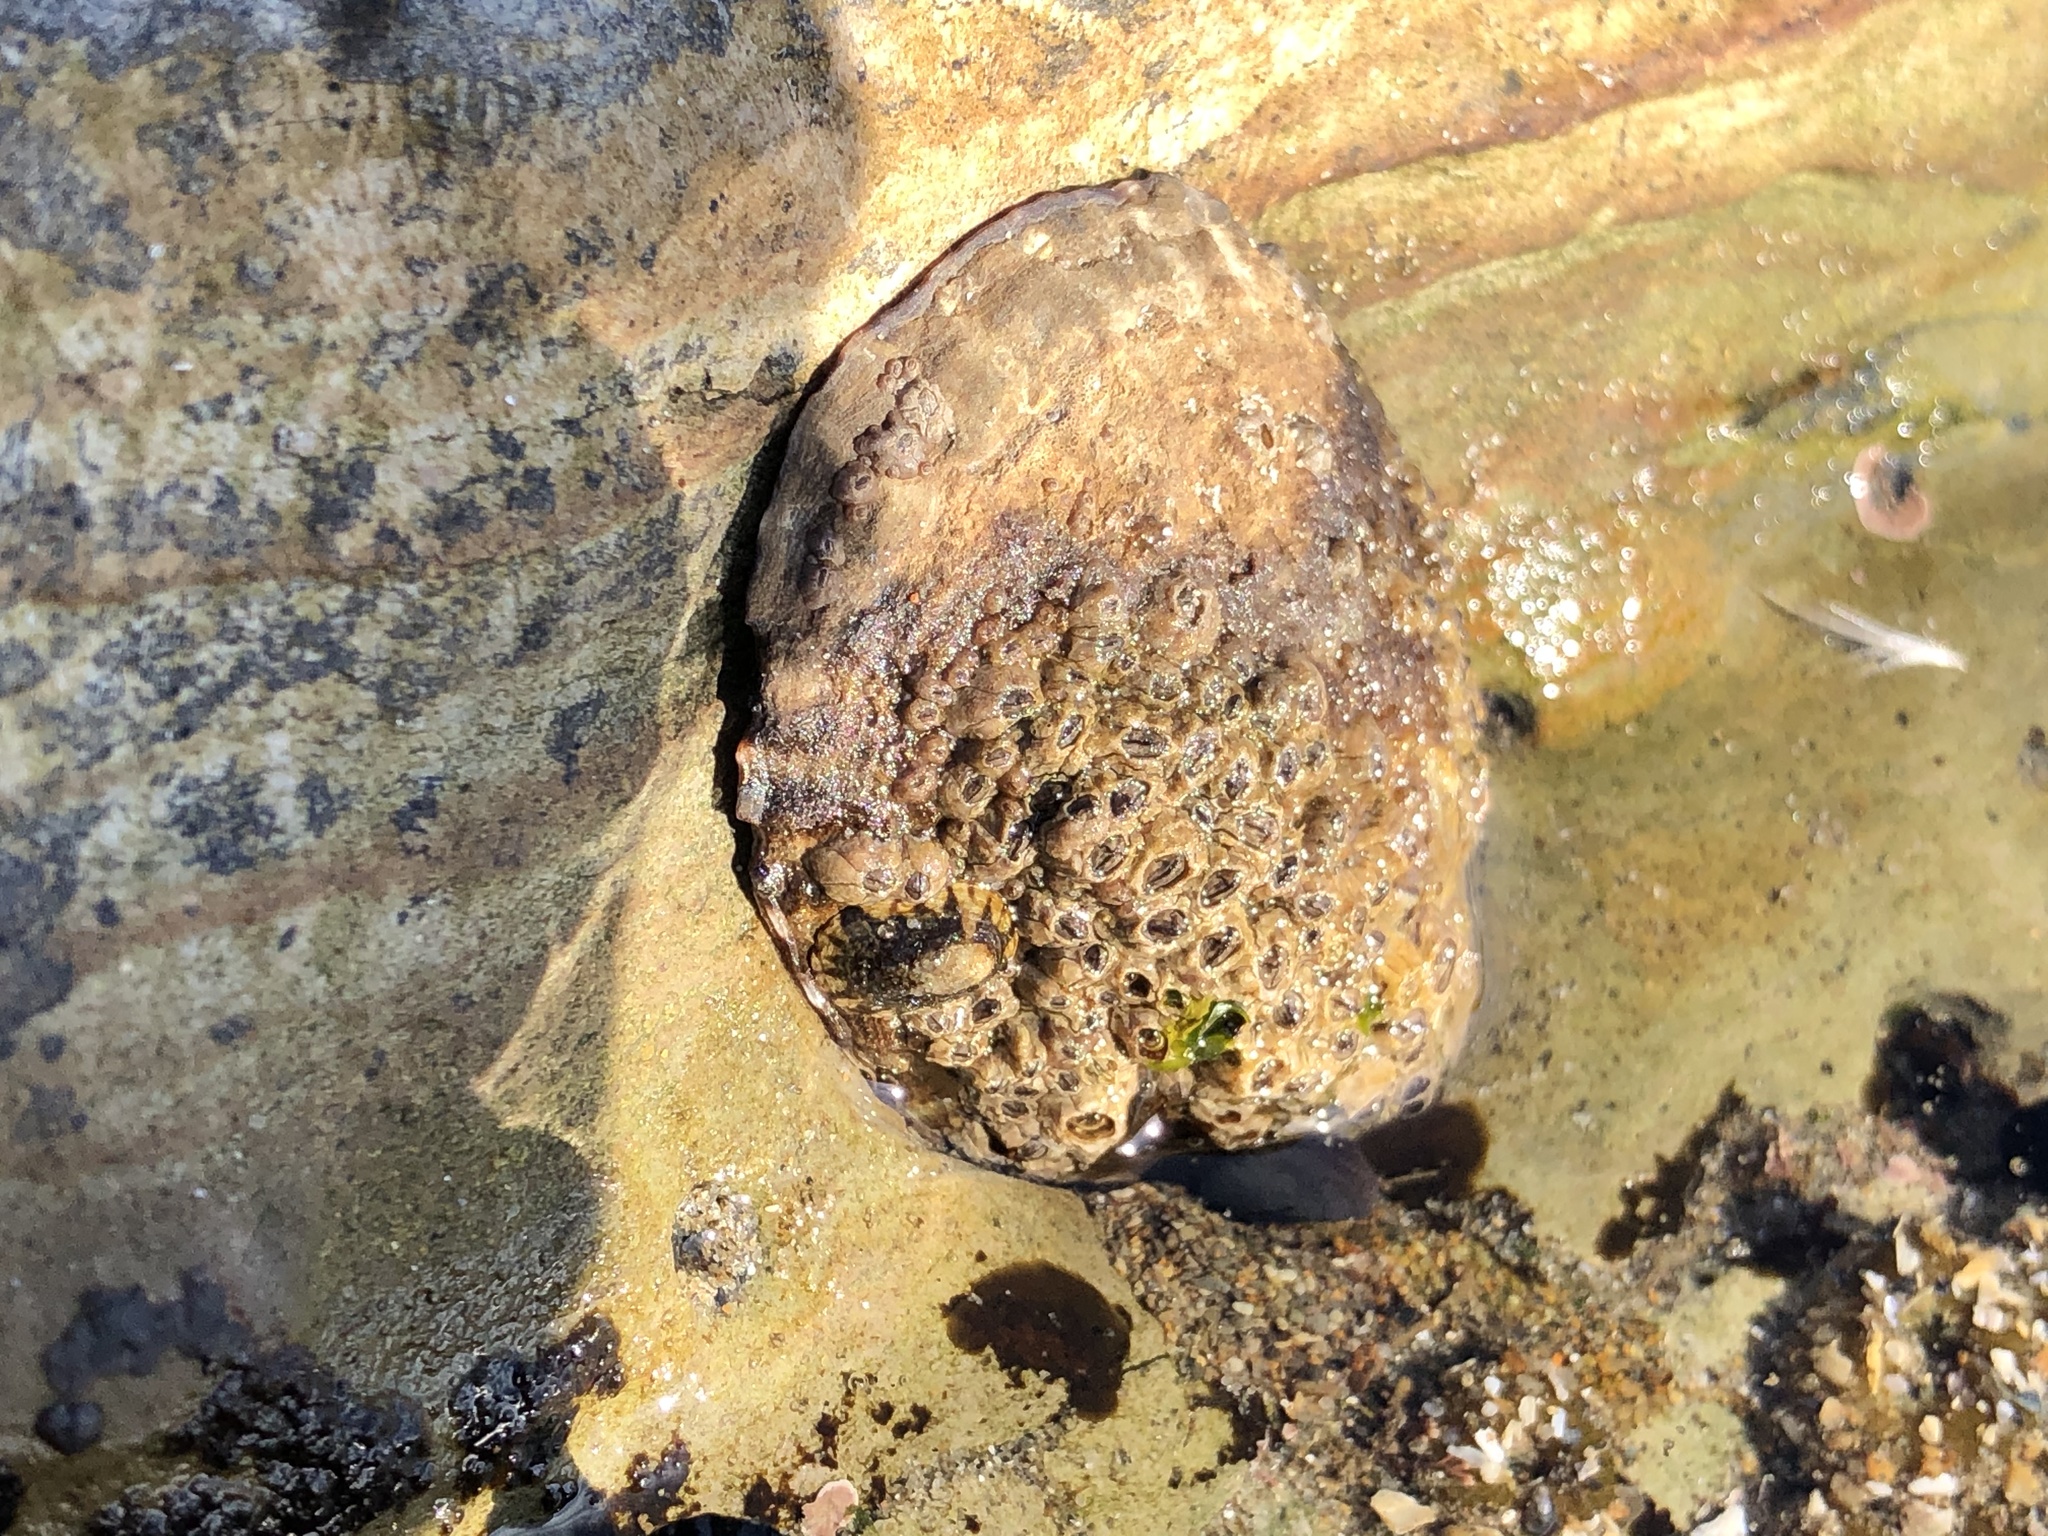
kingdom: Animalia
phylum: Mollusca
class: Gastropoda
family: Lottiidae
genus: Lottia
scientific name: Lottia gigantea
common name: Owl limpet
